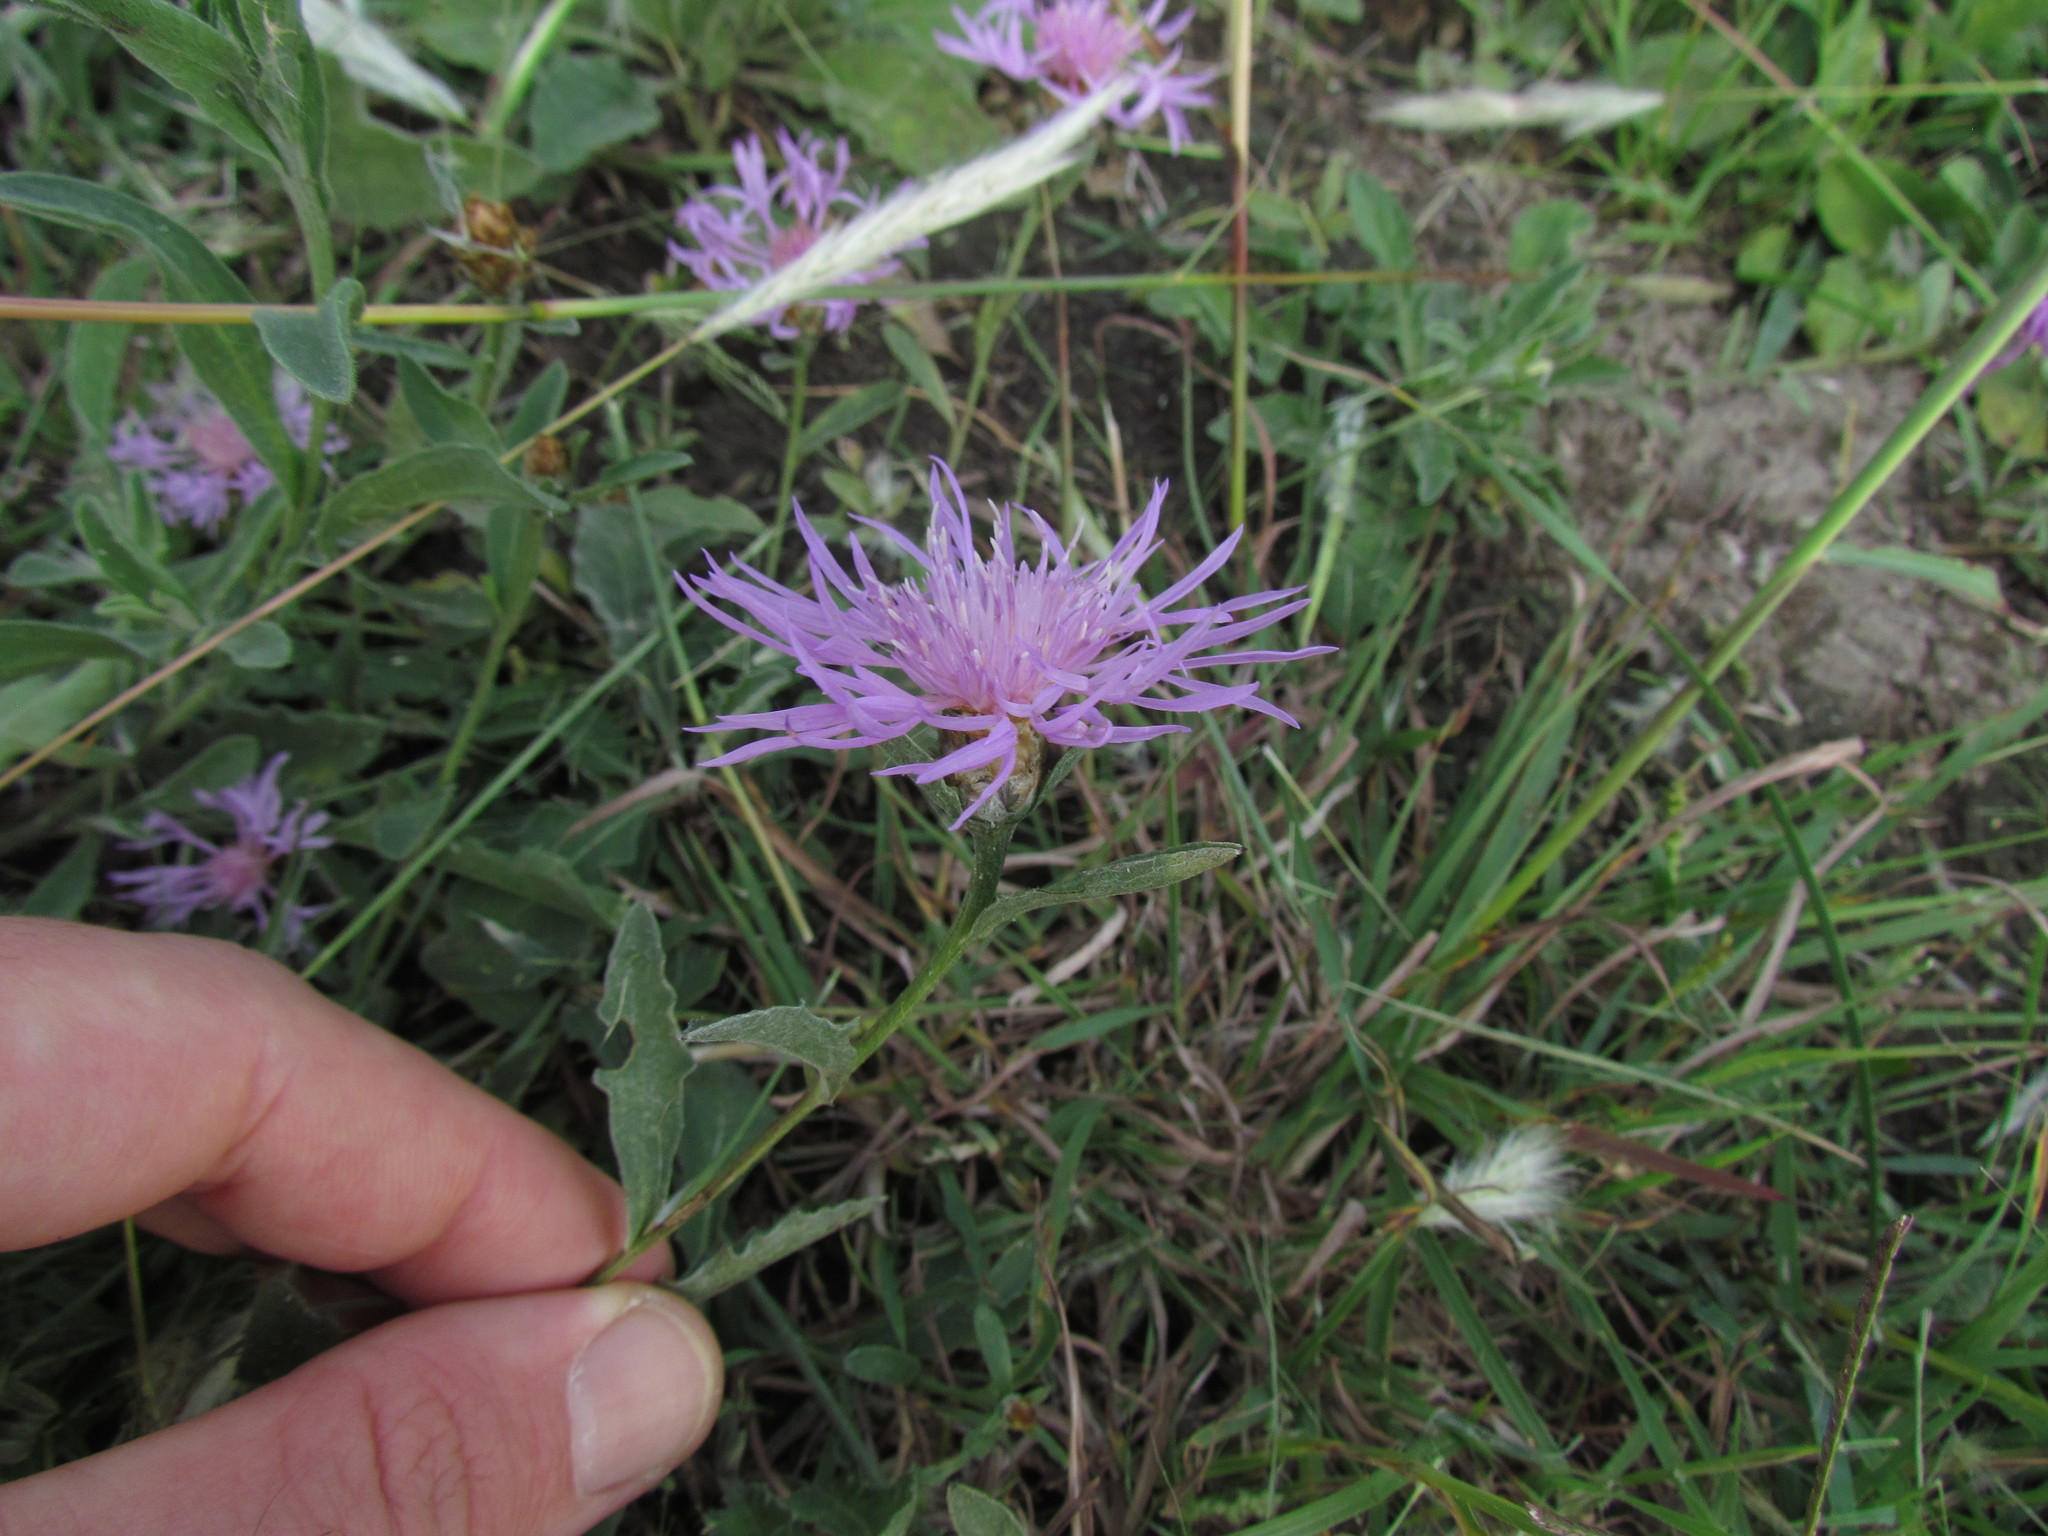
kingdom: Plantae
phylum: Tracheophyta
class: Magnoliopsida
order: Asterales
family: Asteraceae
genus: Centaurea
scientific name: Centaurea jacea
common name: Brown knapweed
